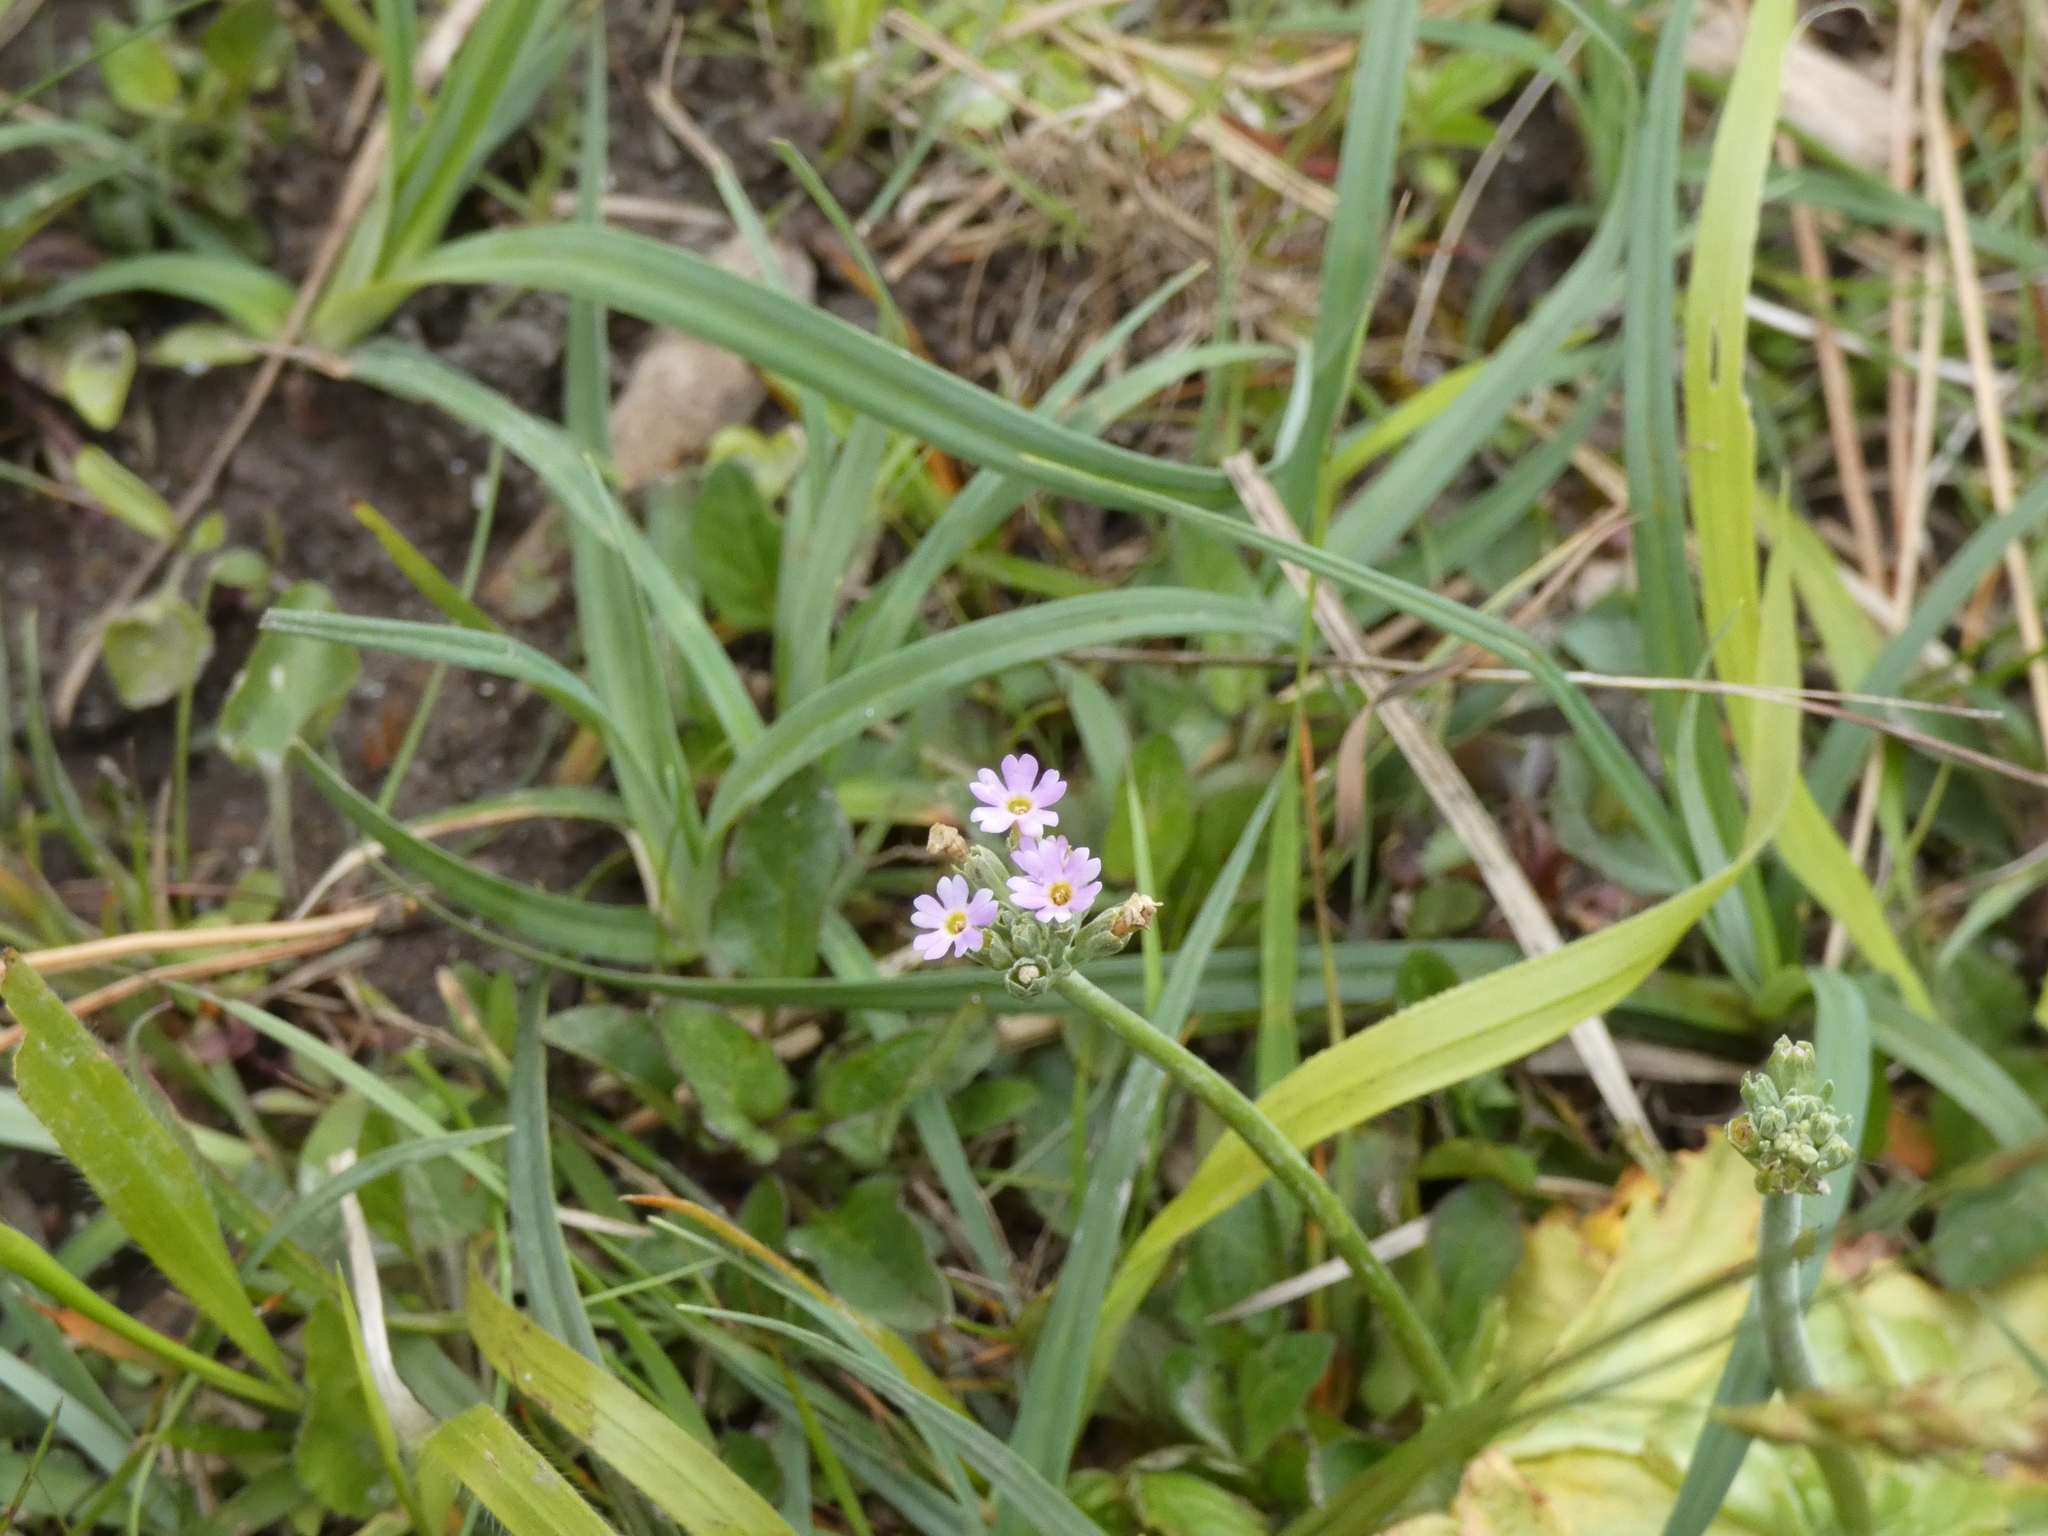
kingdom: Plantae
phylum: Tracheophyta
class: Magnoliopsida
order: Ericales
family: Primulaceae
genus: Primula
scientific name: Primula farinosa
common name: Bird's-eye primrose
